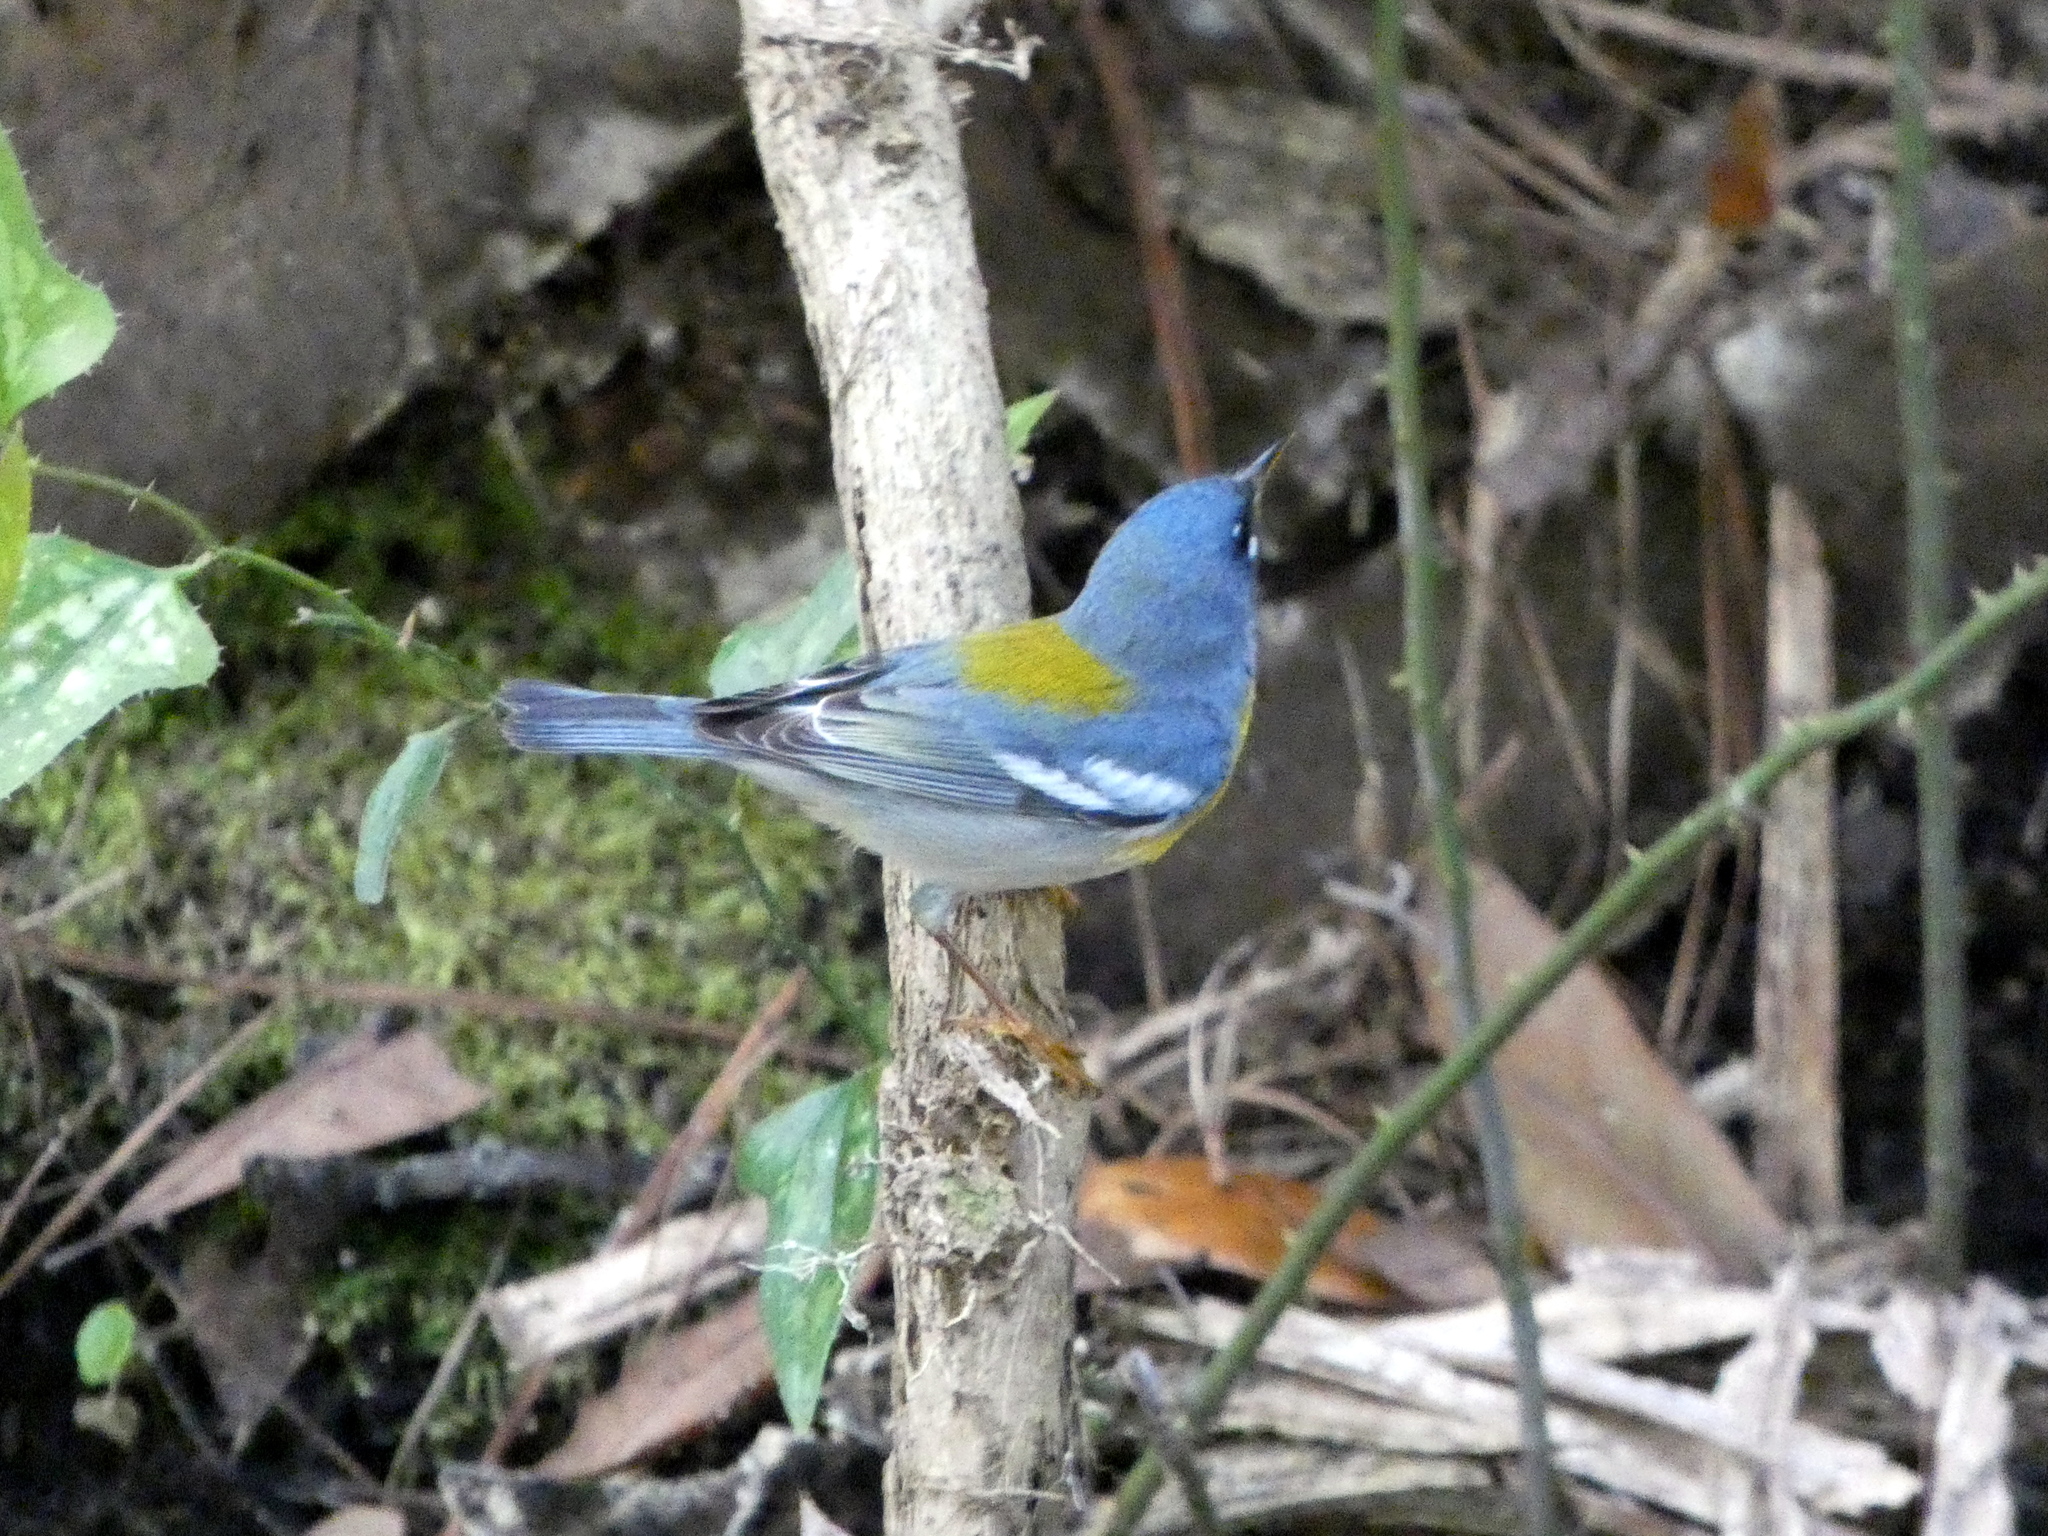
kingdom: Animalia
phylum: Chordata
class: Aves
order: Passeriformes
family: Parulidae
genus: Setophaga
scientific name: Setophaga americana
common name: Northern parula
